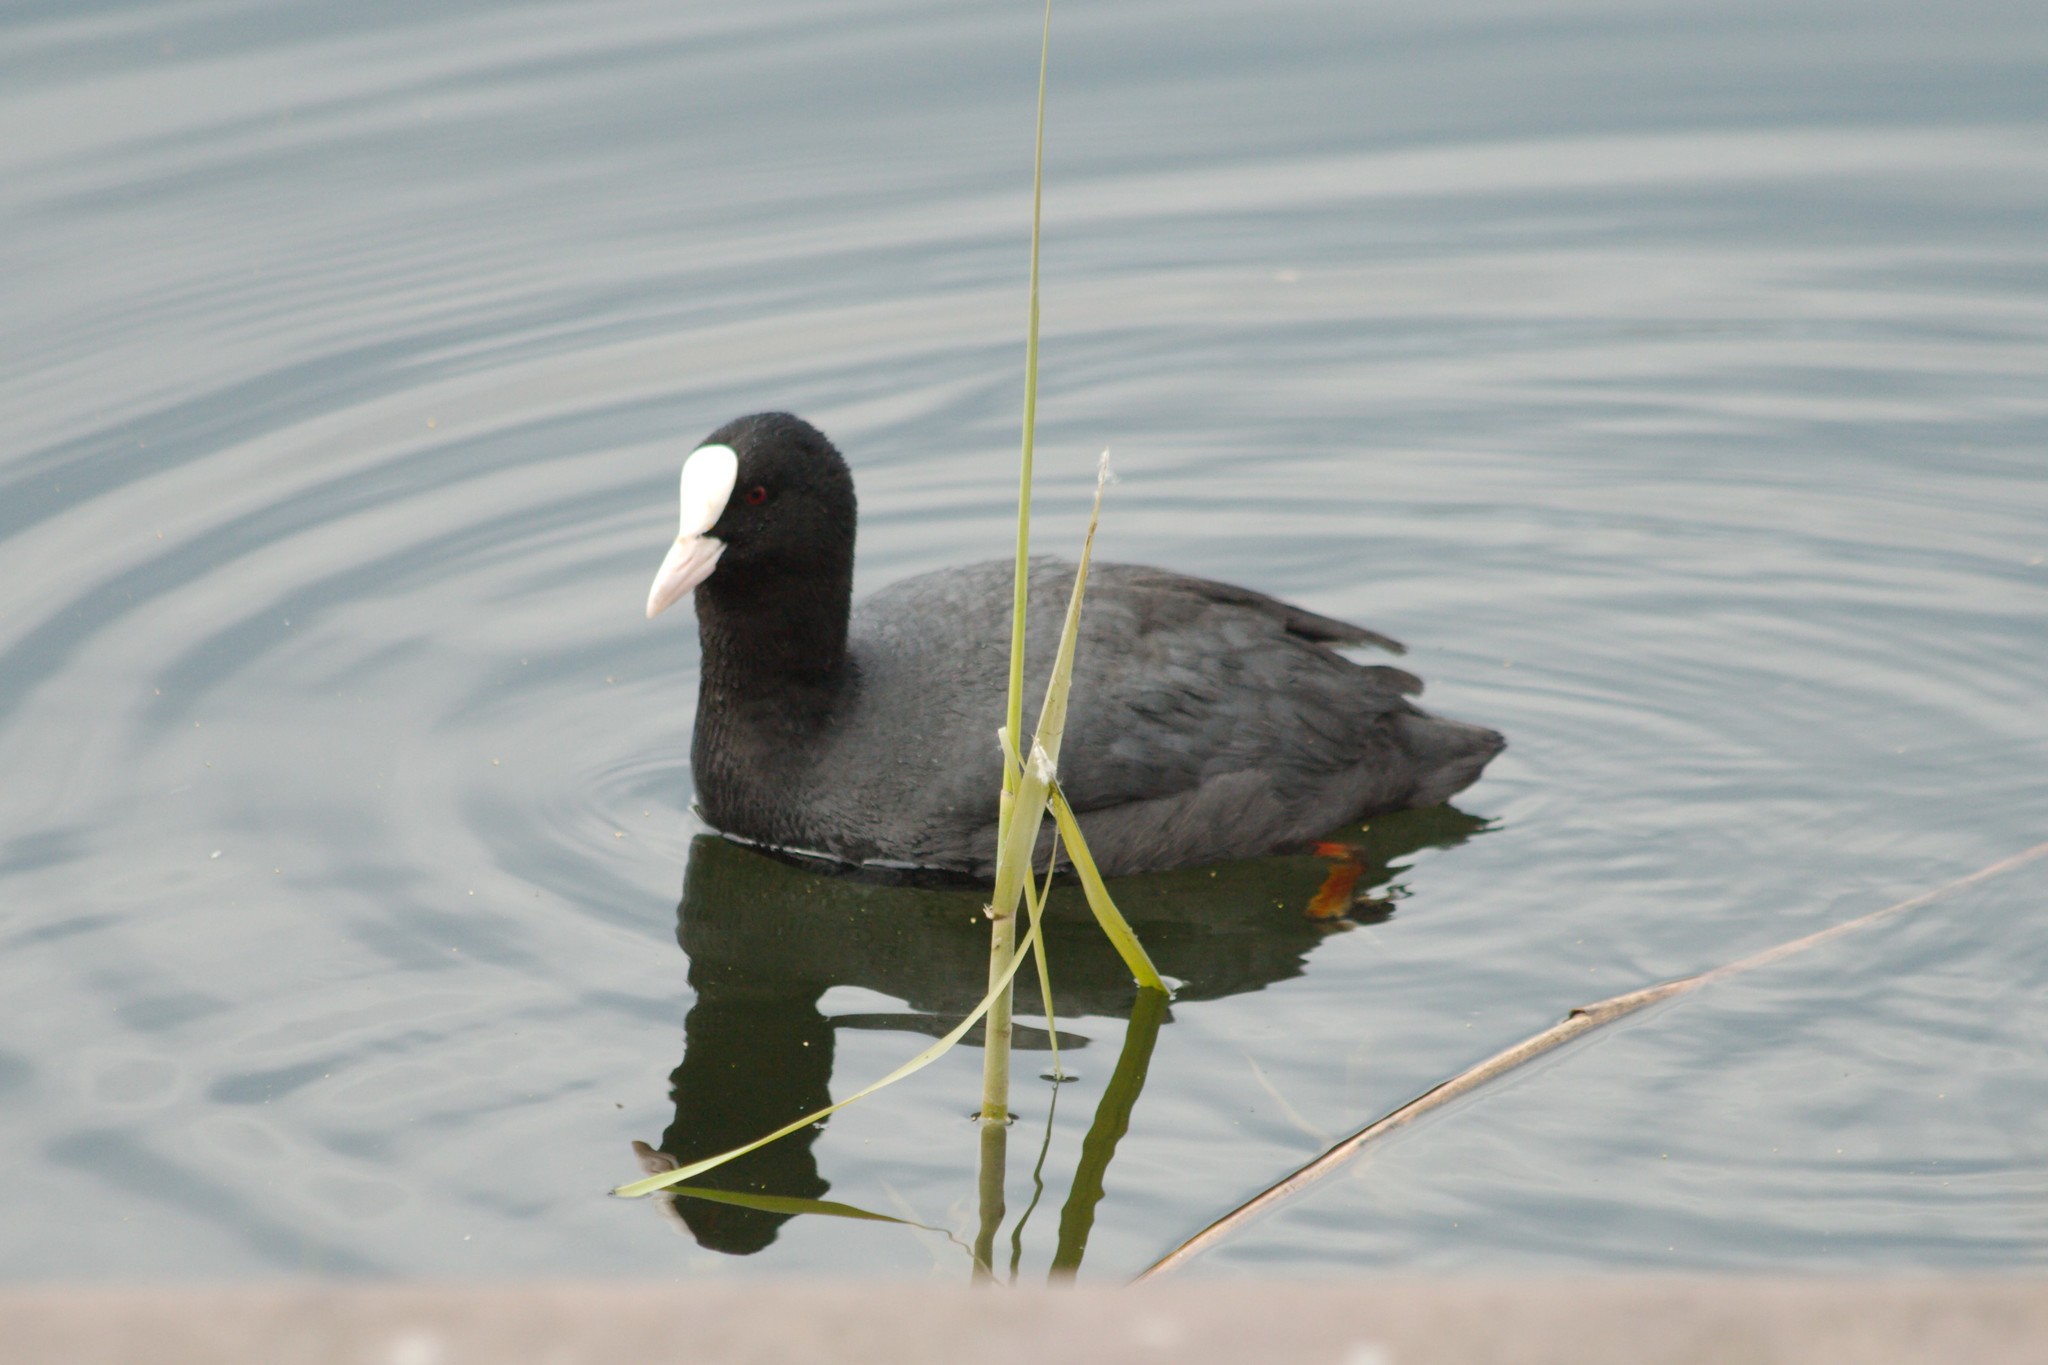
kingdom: Animalia
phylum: Chordata
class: Aves
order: Gruiformes
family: Rallidae
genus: Fulica
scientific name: Fulica atra
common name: Eurasian coot
